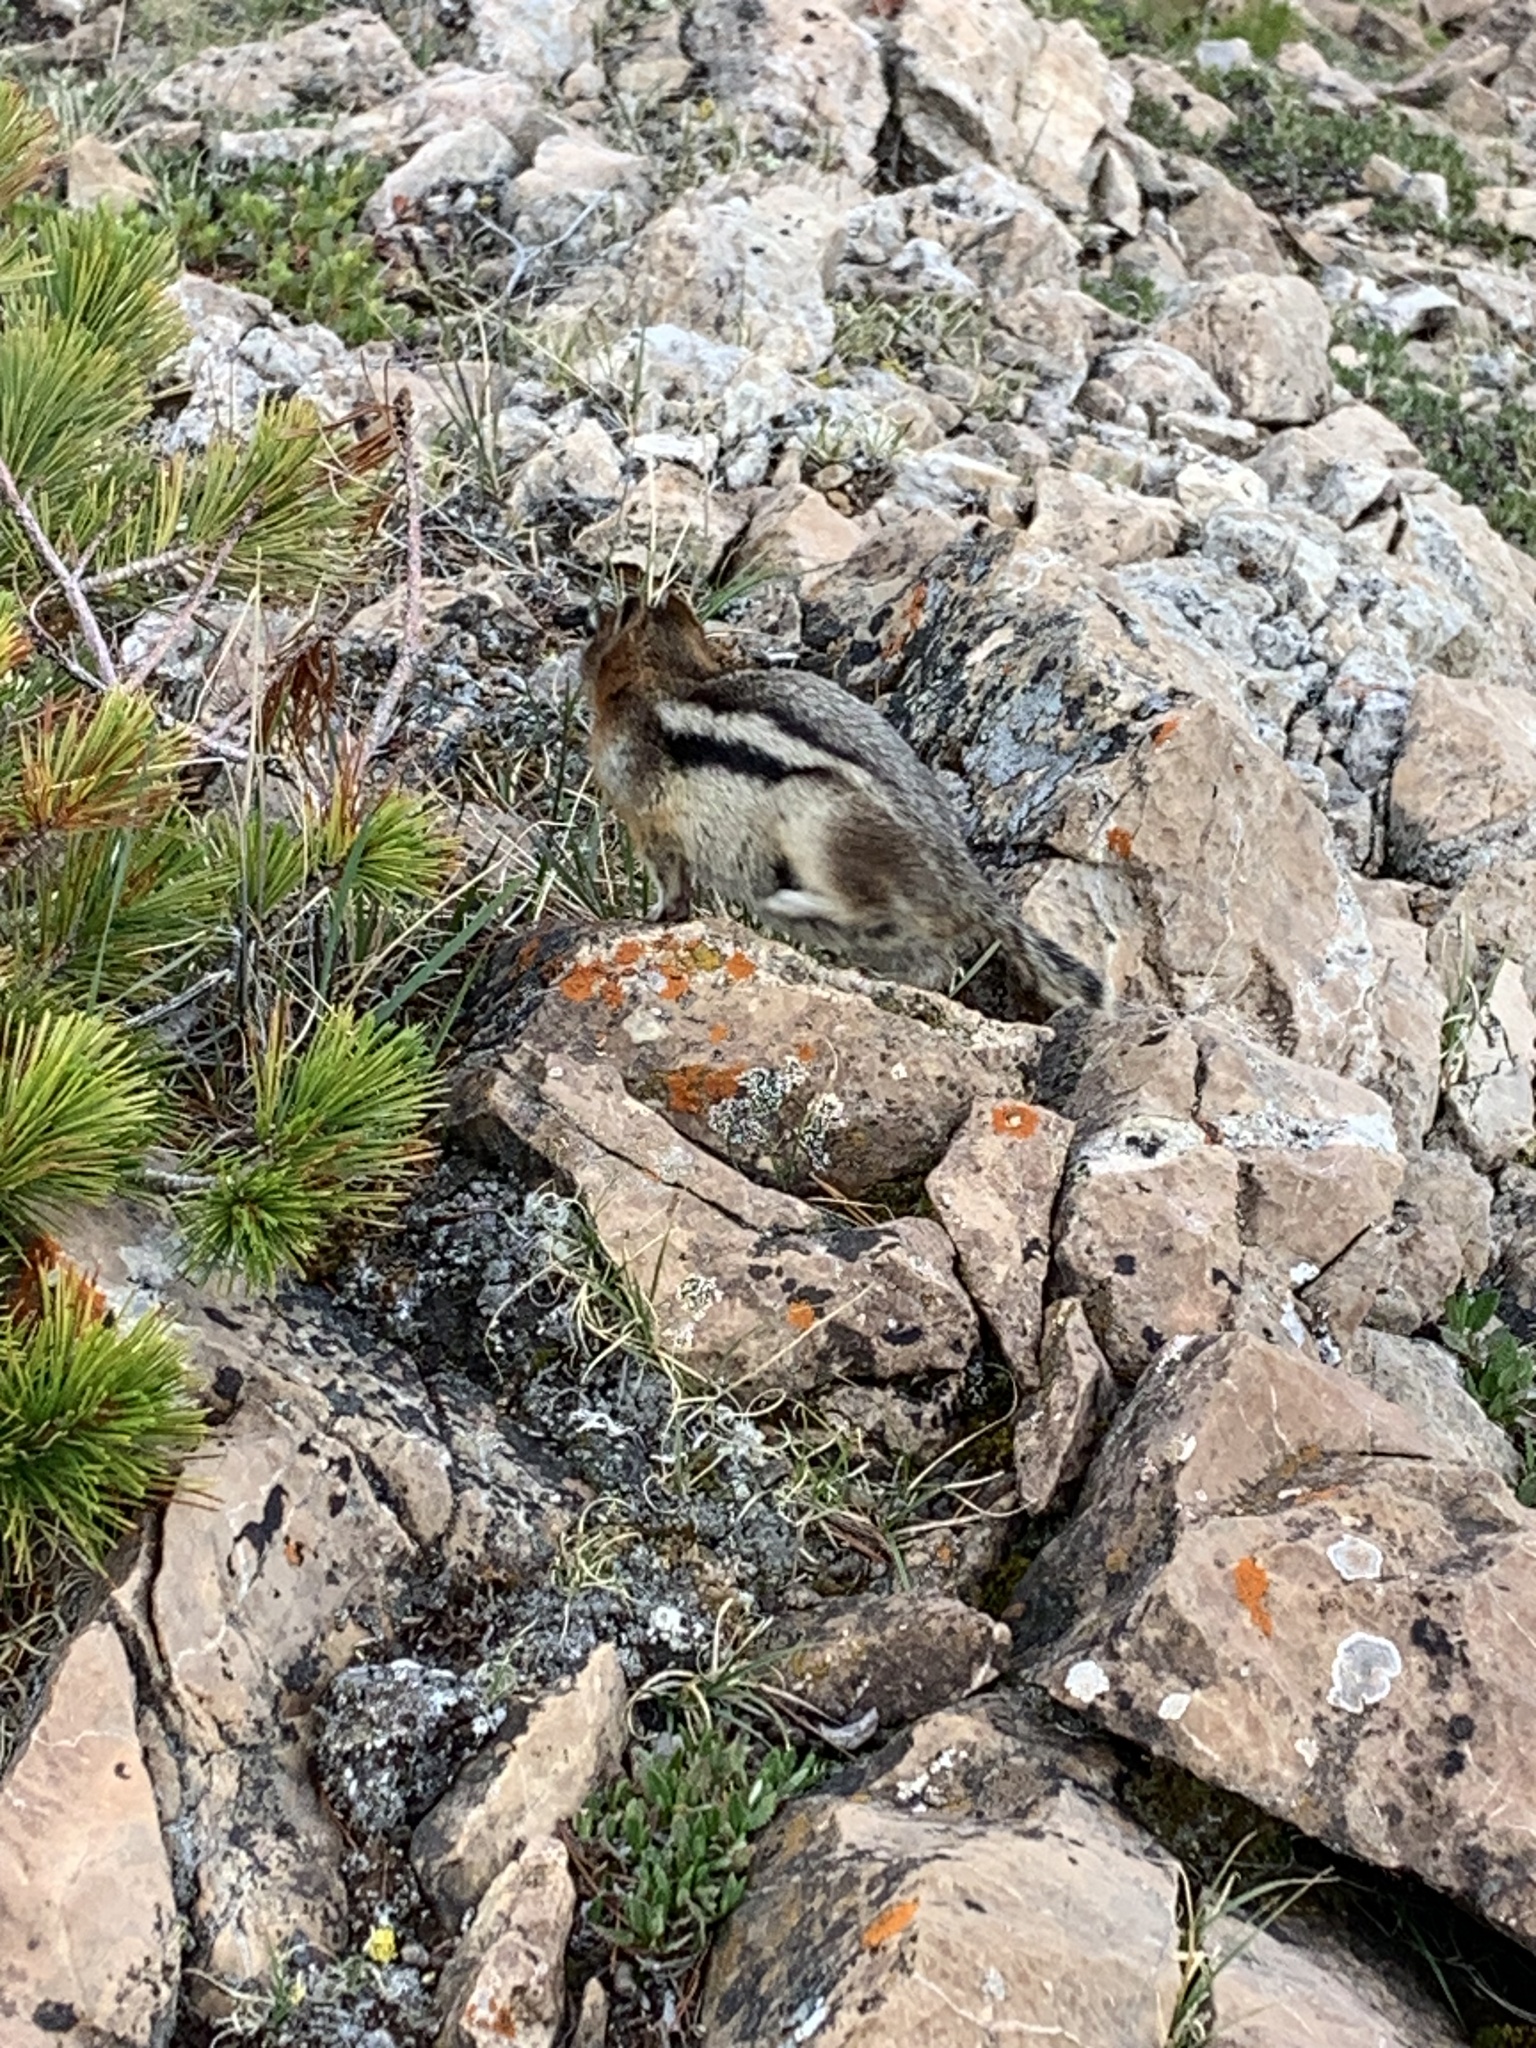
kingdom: Animalia
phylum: Chordata
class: Mammalia
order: Rodentia
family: Sciuridae
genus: Callospermophilus
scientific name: Callospermophilus lateralis
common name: Golden-mantled ground squirrel
